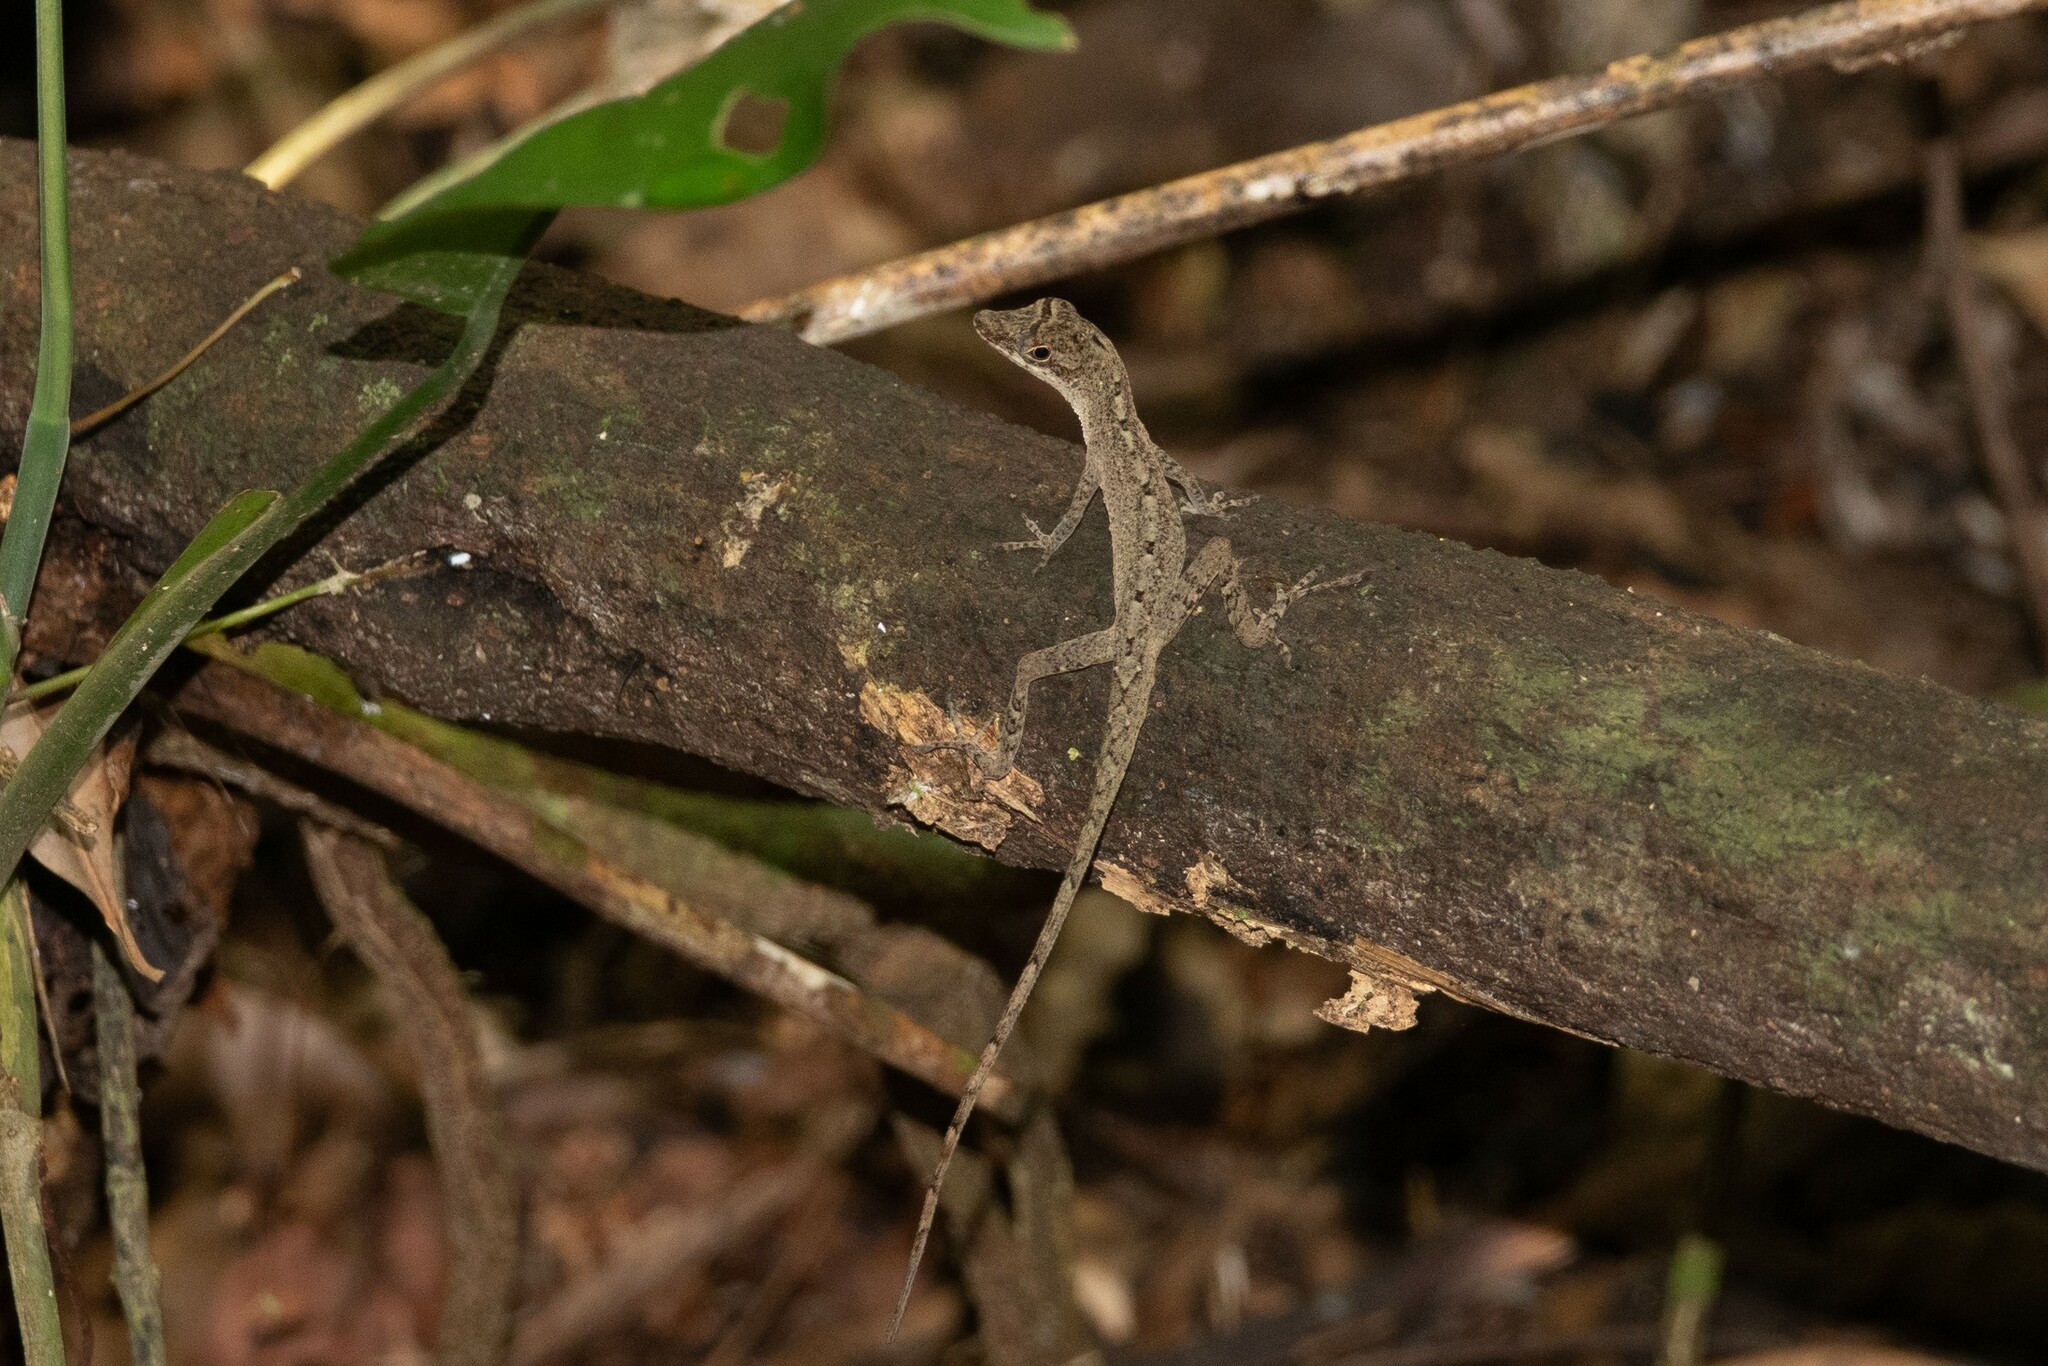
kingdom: Animalia
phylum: Chordata
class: Squamata
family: Dactyloidae
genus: Anolis
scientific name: Anolis fuscoauratus
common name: Brown-eared anole
